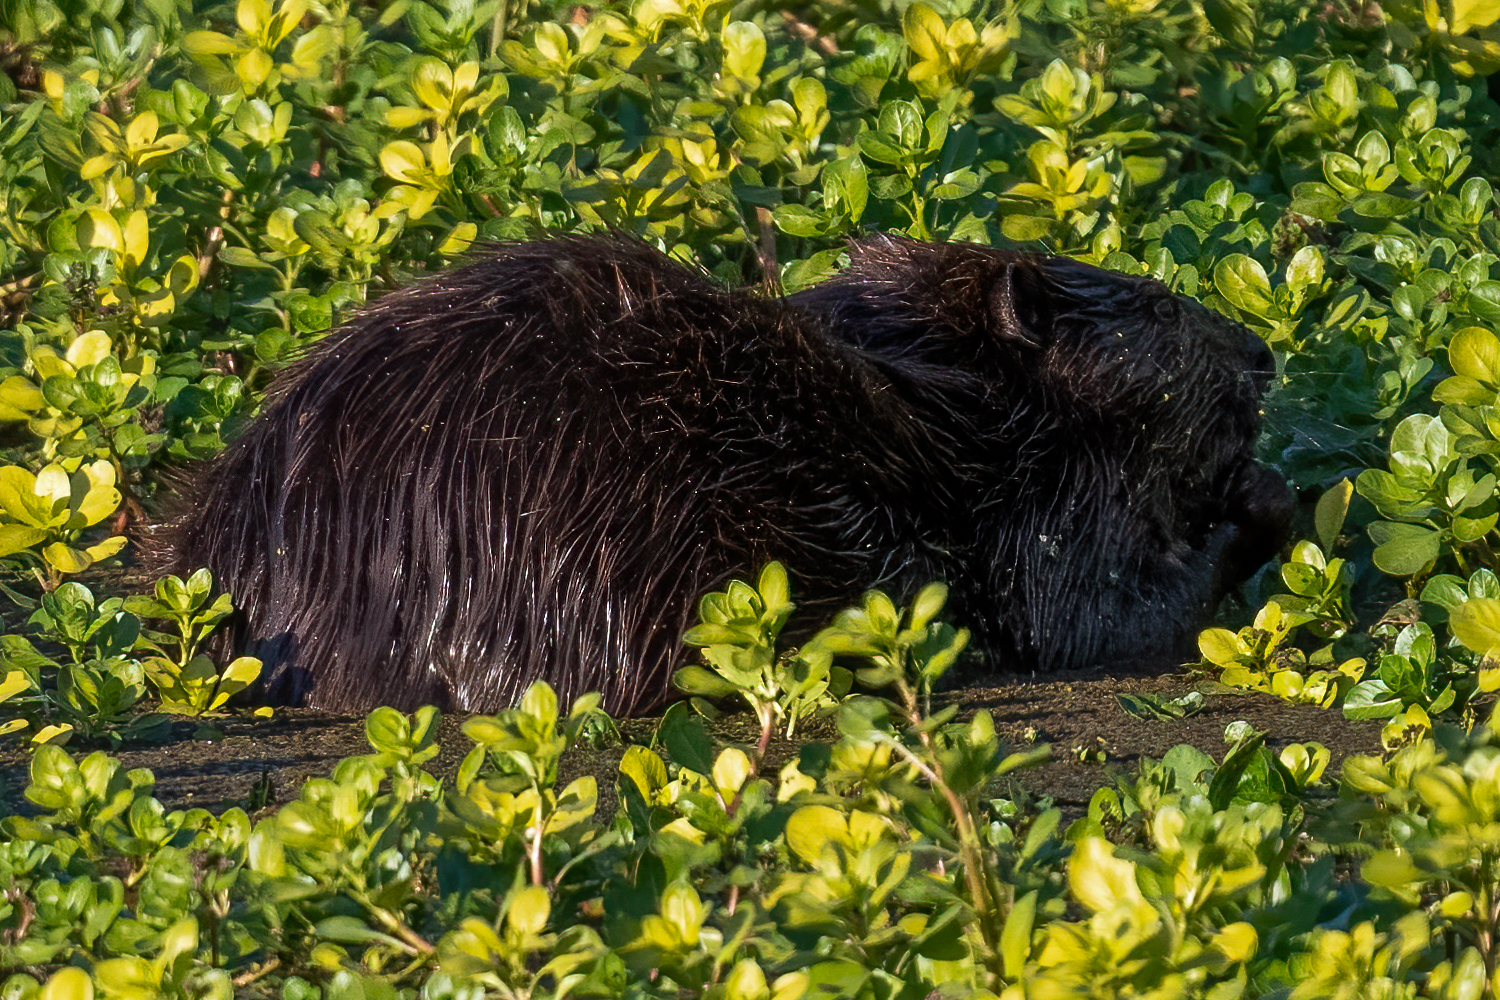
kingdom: Animalia
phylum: Chordata
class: Mammalia
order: Rodentia
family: Castoridae
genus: Castor
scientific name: Castor canadensis
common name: American beaver
